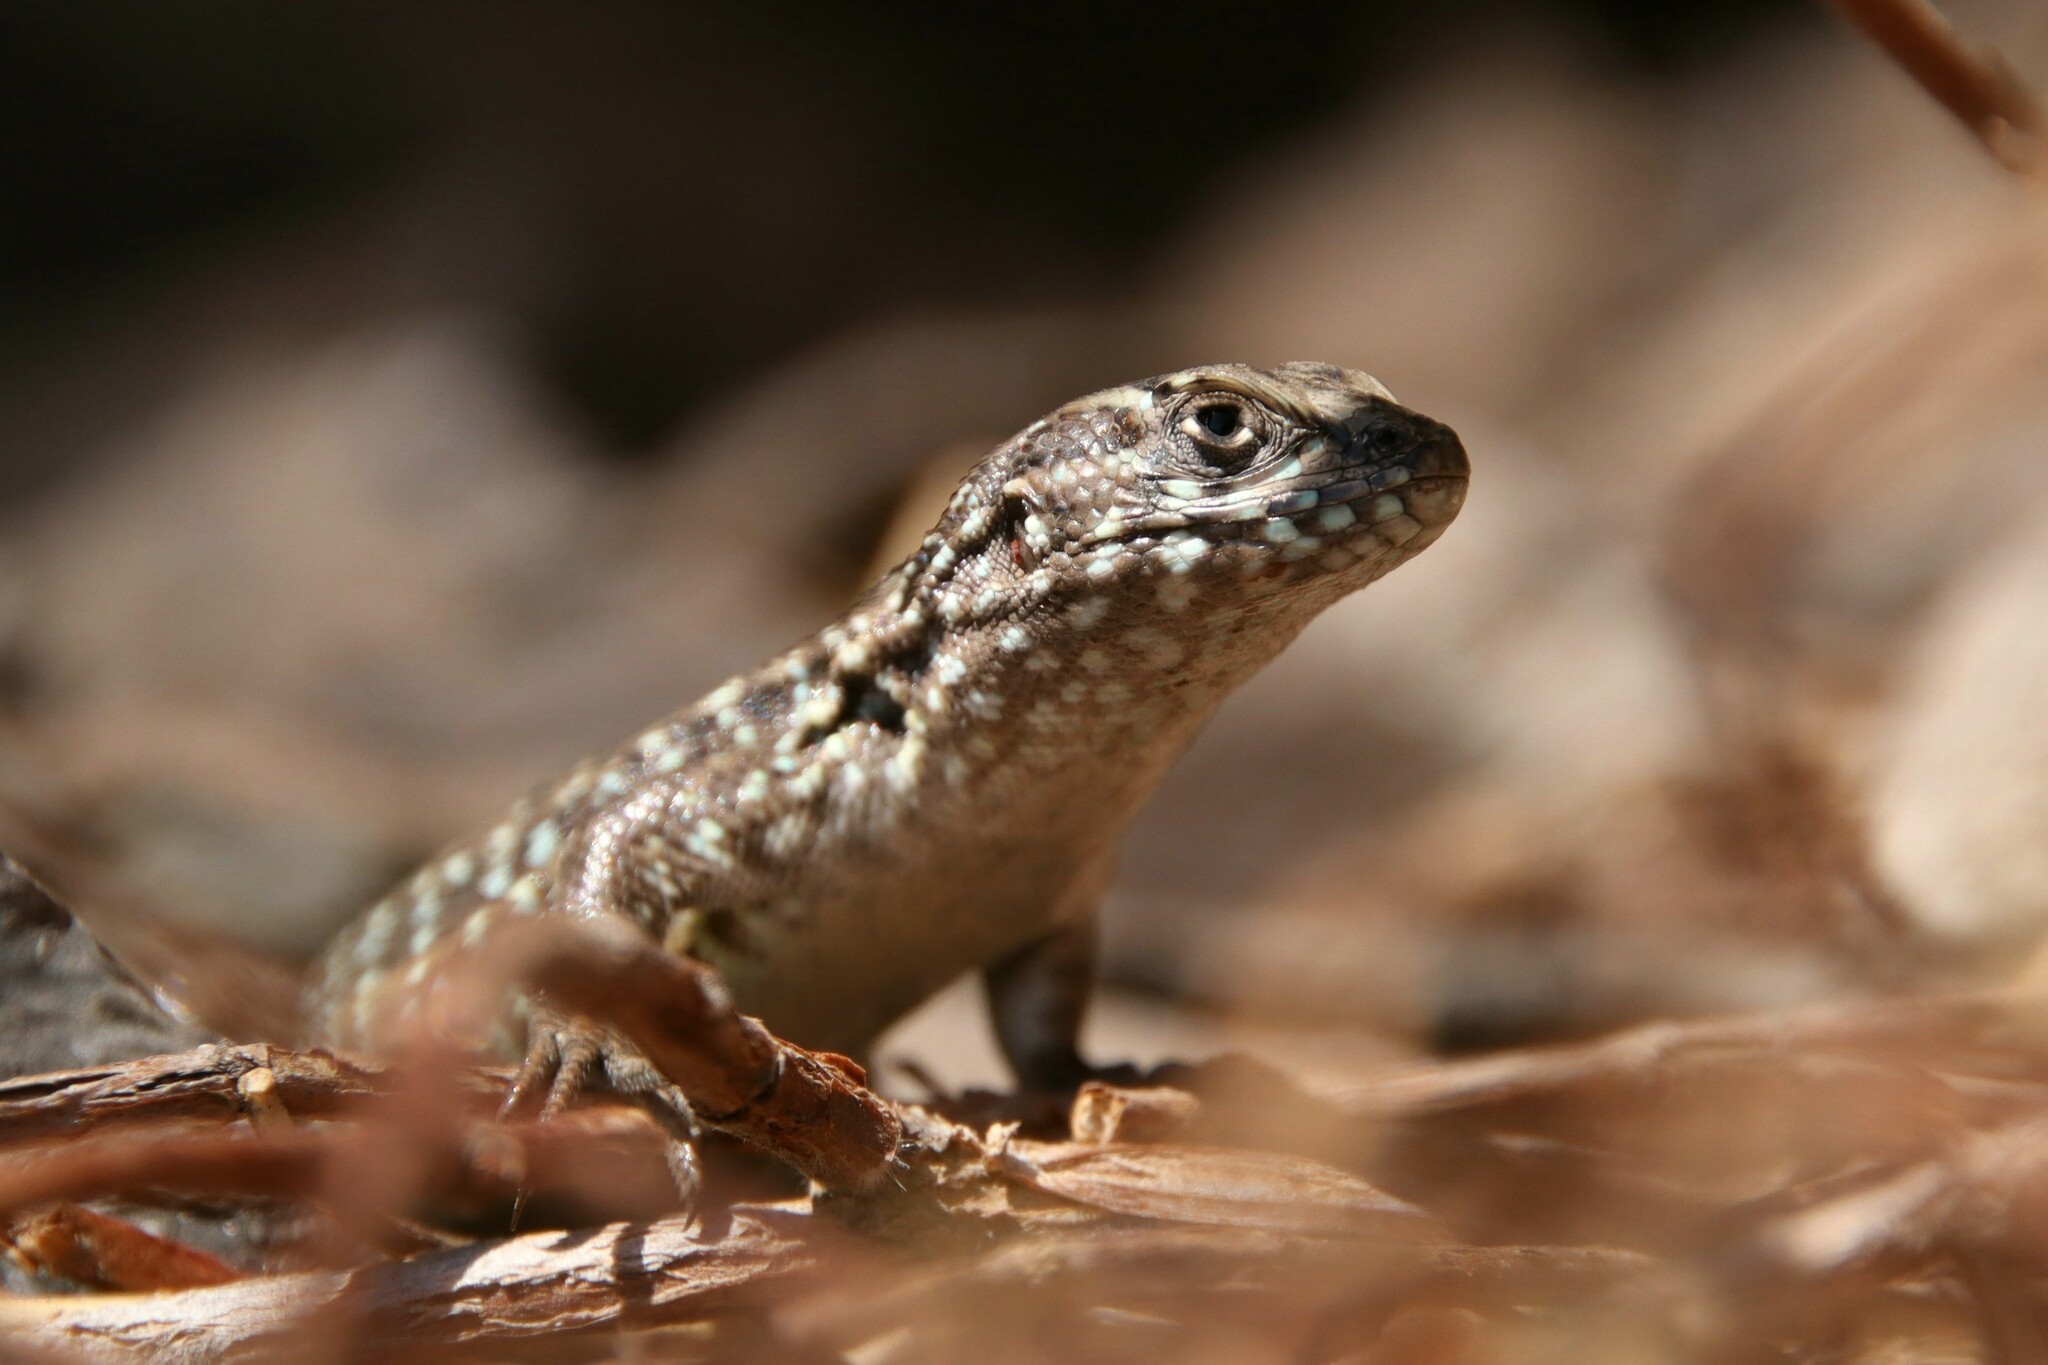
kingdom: Animalia
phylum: Chordata
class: Squamata
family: Liolaemidae
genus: Liolaemus
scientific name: Liolaemus nigroviridis
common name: Black-green tree iguana
